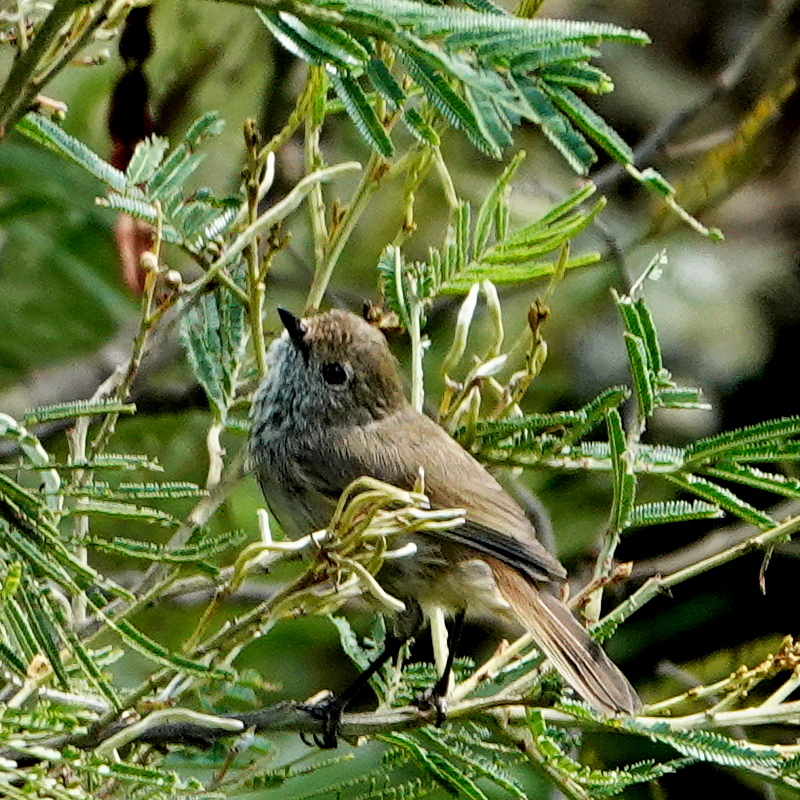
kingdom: Animalia
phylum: Chordata
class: Aves
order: Passeriformes
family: Acanthizidae
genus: Acanthiza
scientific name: Acanthiza pusilla
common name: Brown thornbill
